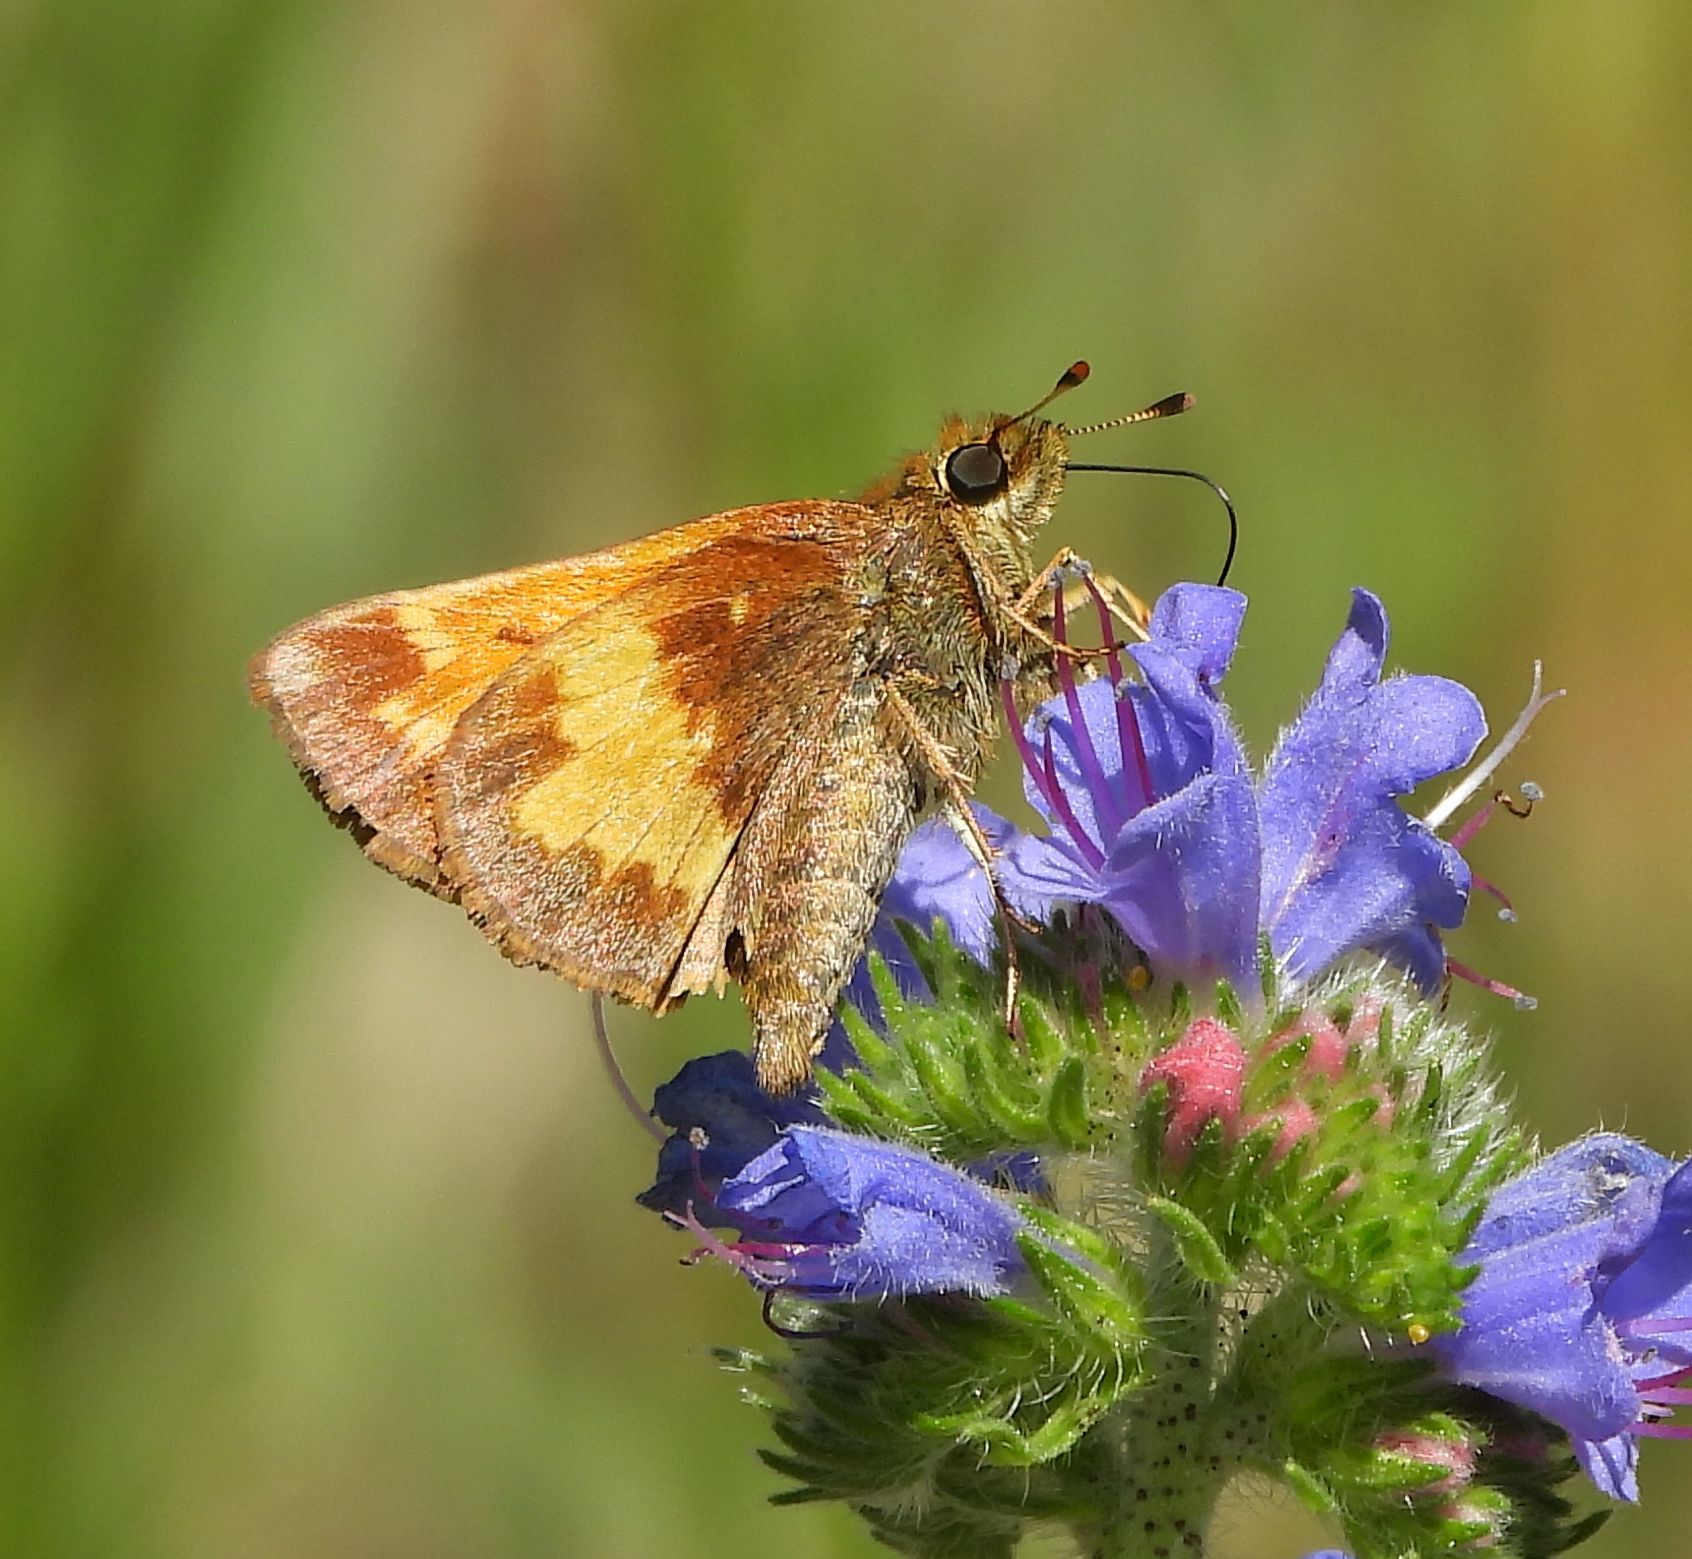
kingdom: Animalia
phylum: Arthropoda
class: Insecta
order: Lepidoptera
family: Hesperiidae
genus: Lon
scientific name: Lon hobomok
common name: Hobomok skipper
